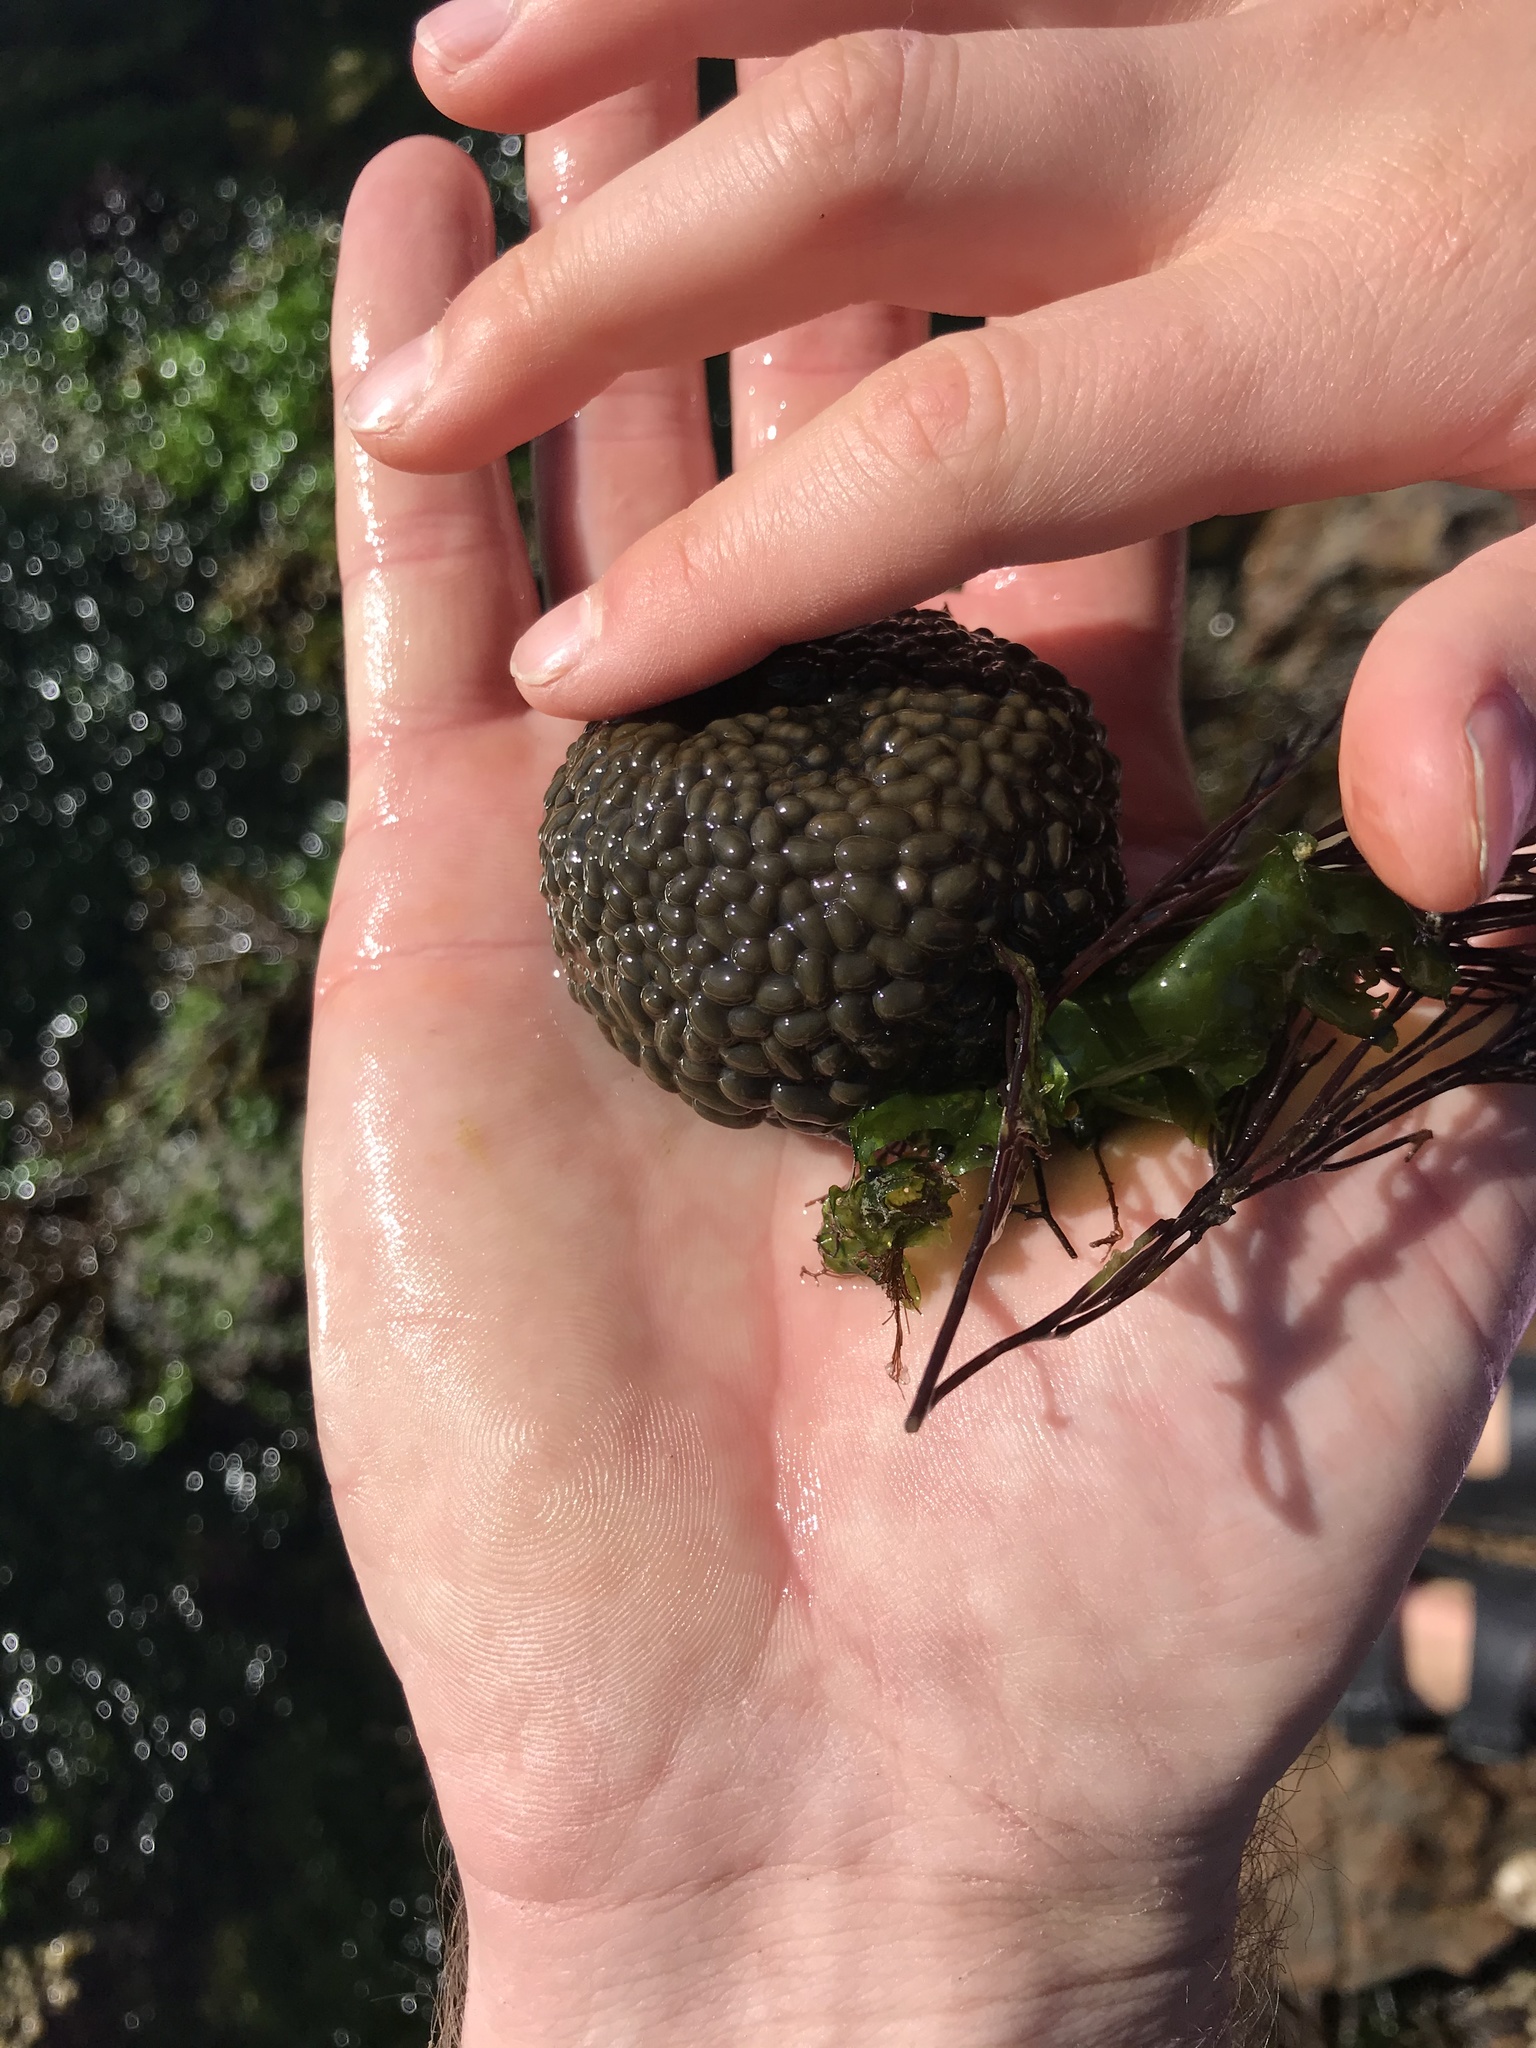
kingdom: Animalia
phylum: Cnidaria
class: Anthozoa
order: Actiniaria
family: Actiniidae
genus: Phlyctenactis
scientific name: Phlyctenactis tuberculosa
